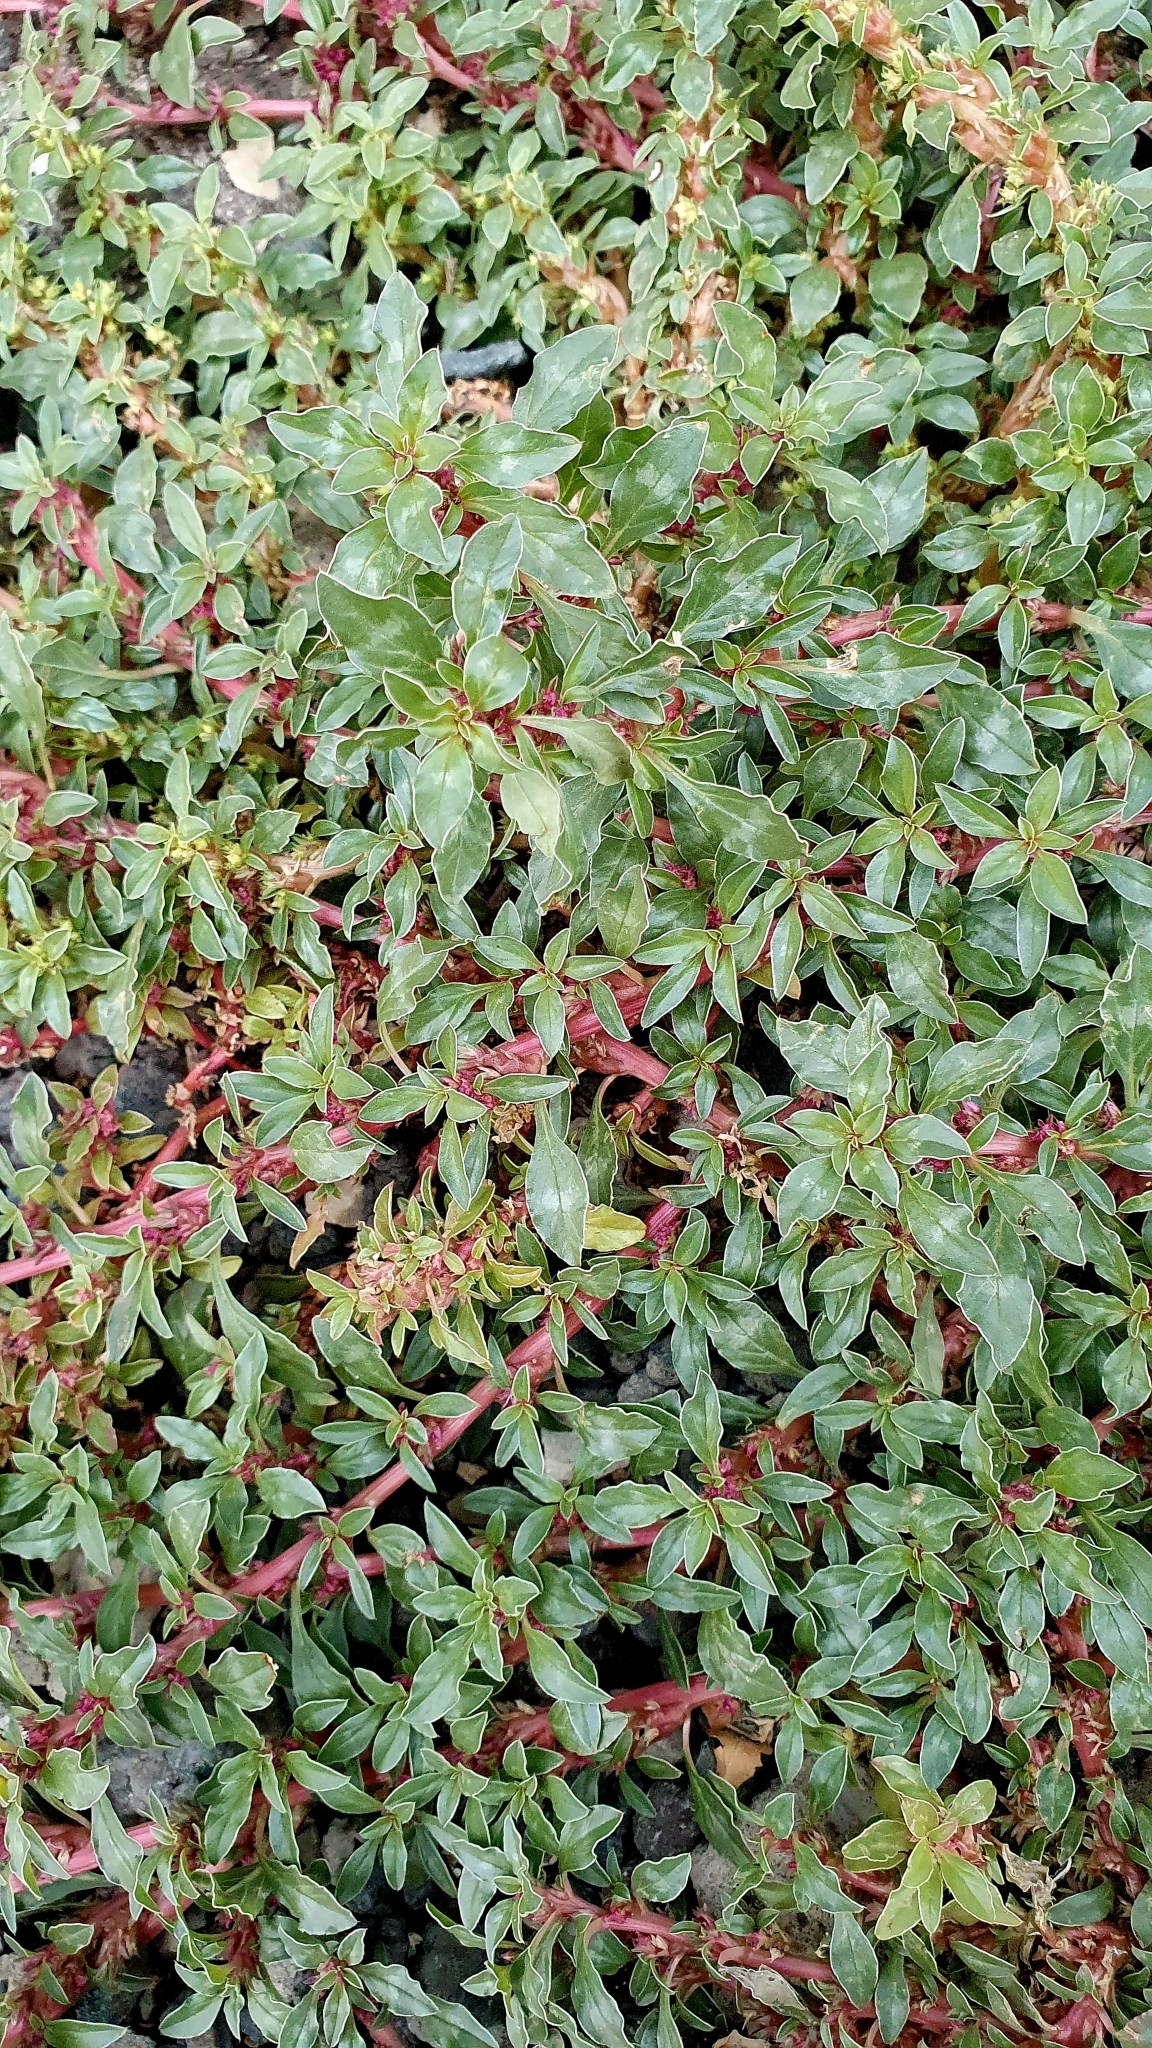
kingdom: Plantae
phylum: Tracheophyta
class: Magnoliopsida
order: Caryophyllales
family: Amaranthaceae
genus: Amaranthus
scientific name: Amaranthus blitoides
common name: Prostrate pigweed
